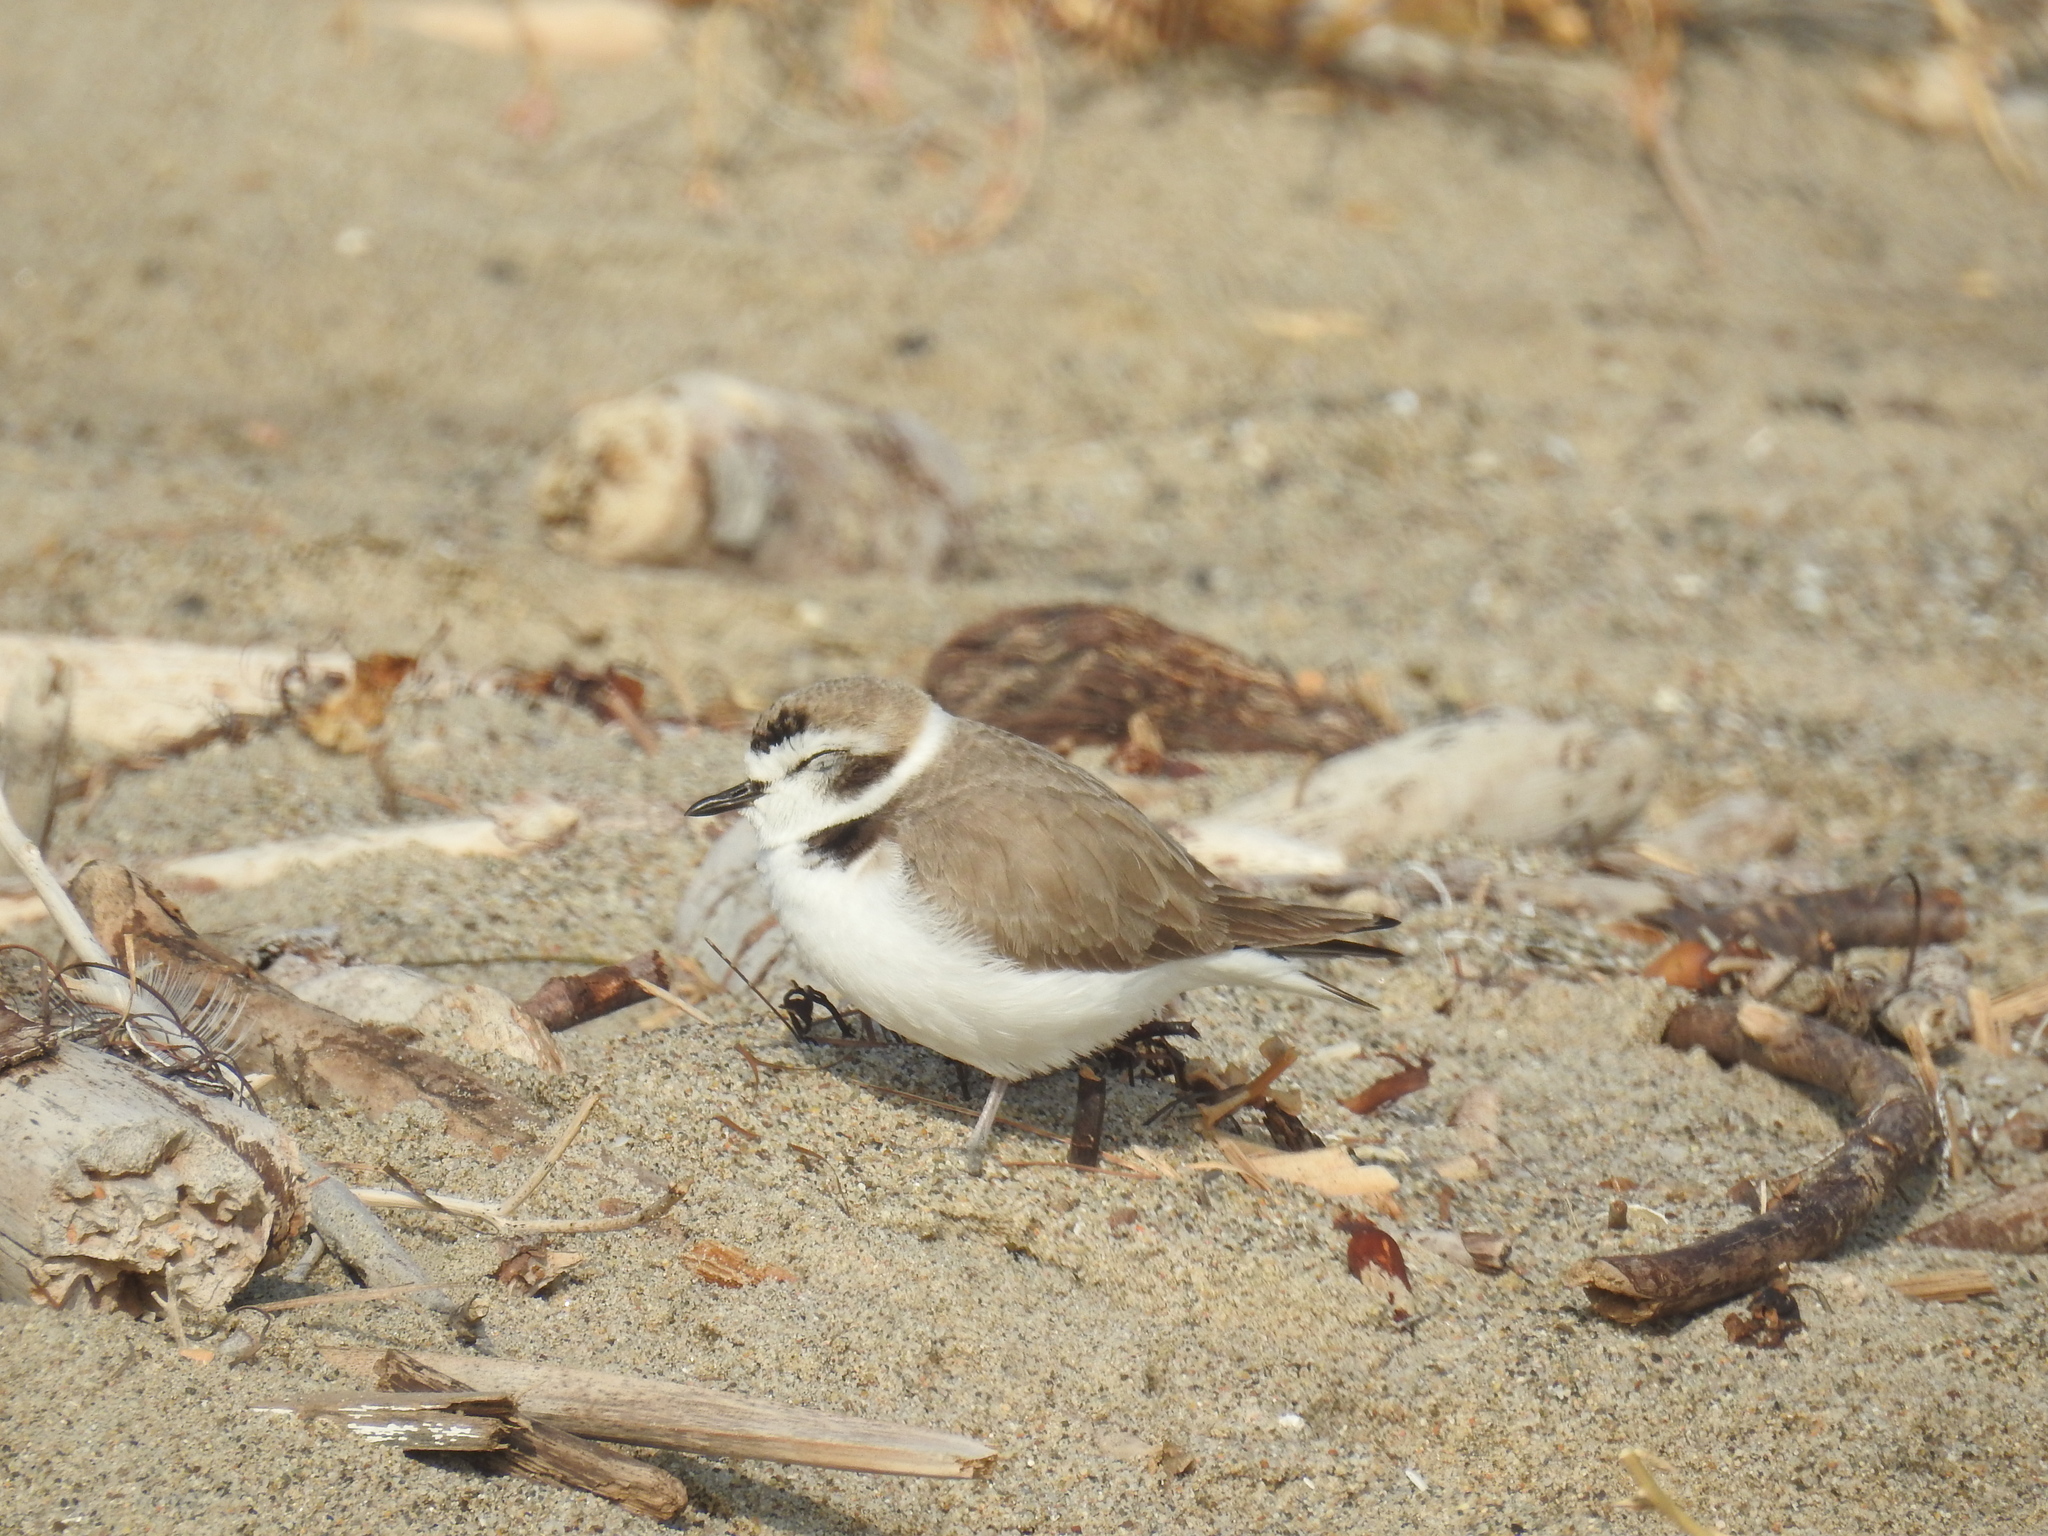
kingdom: Animalia
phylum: Chordata
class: Aves
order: Charadriiformes
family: Charadriidae
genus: Anarhynchus
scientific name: Anarhynchus
